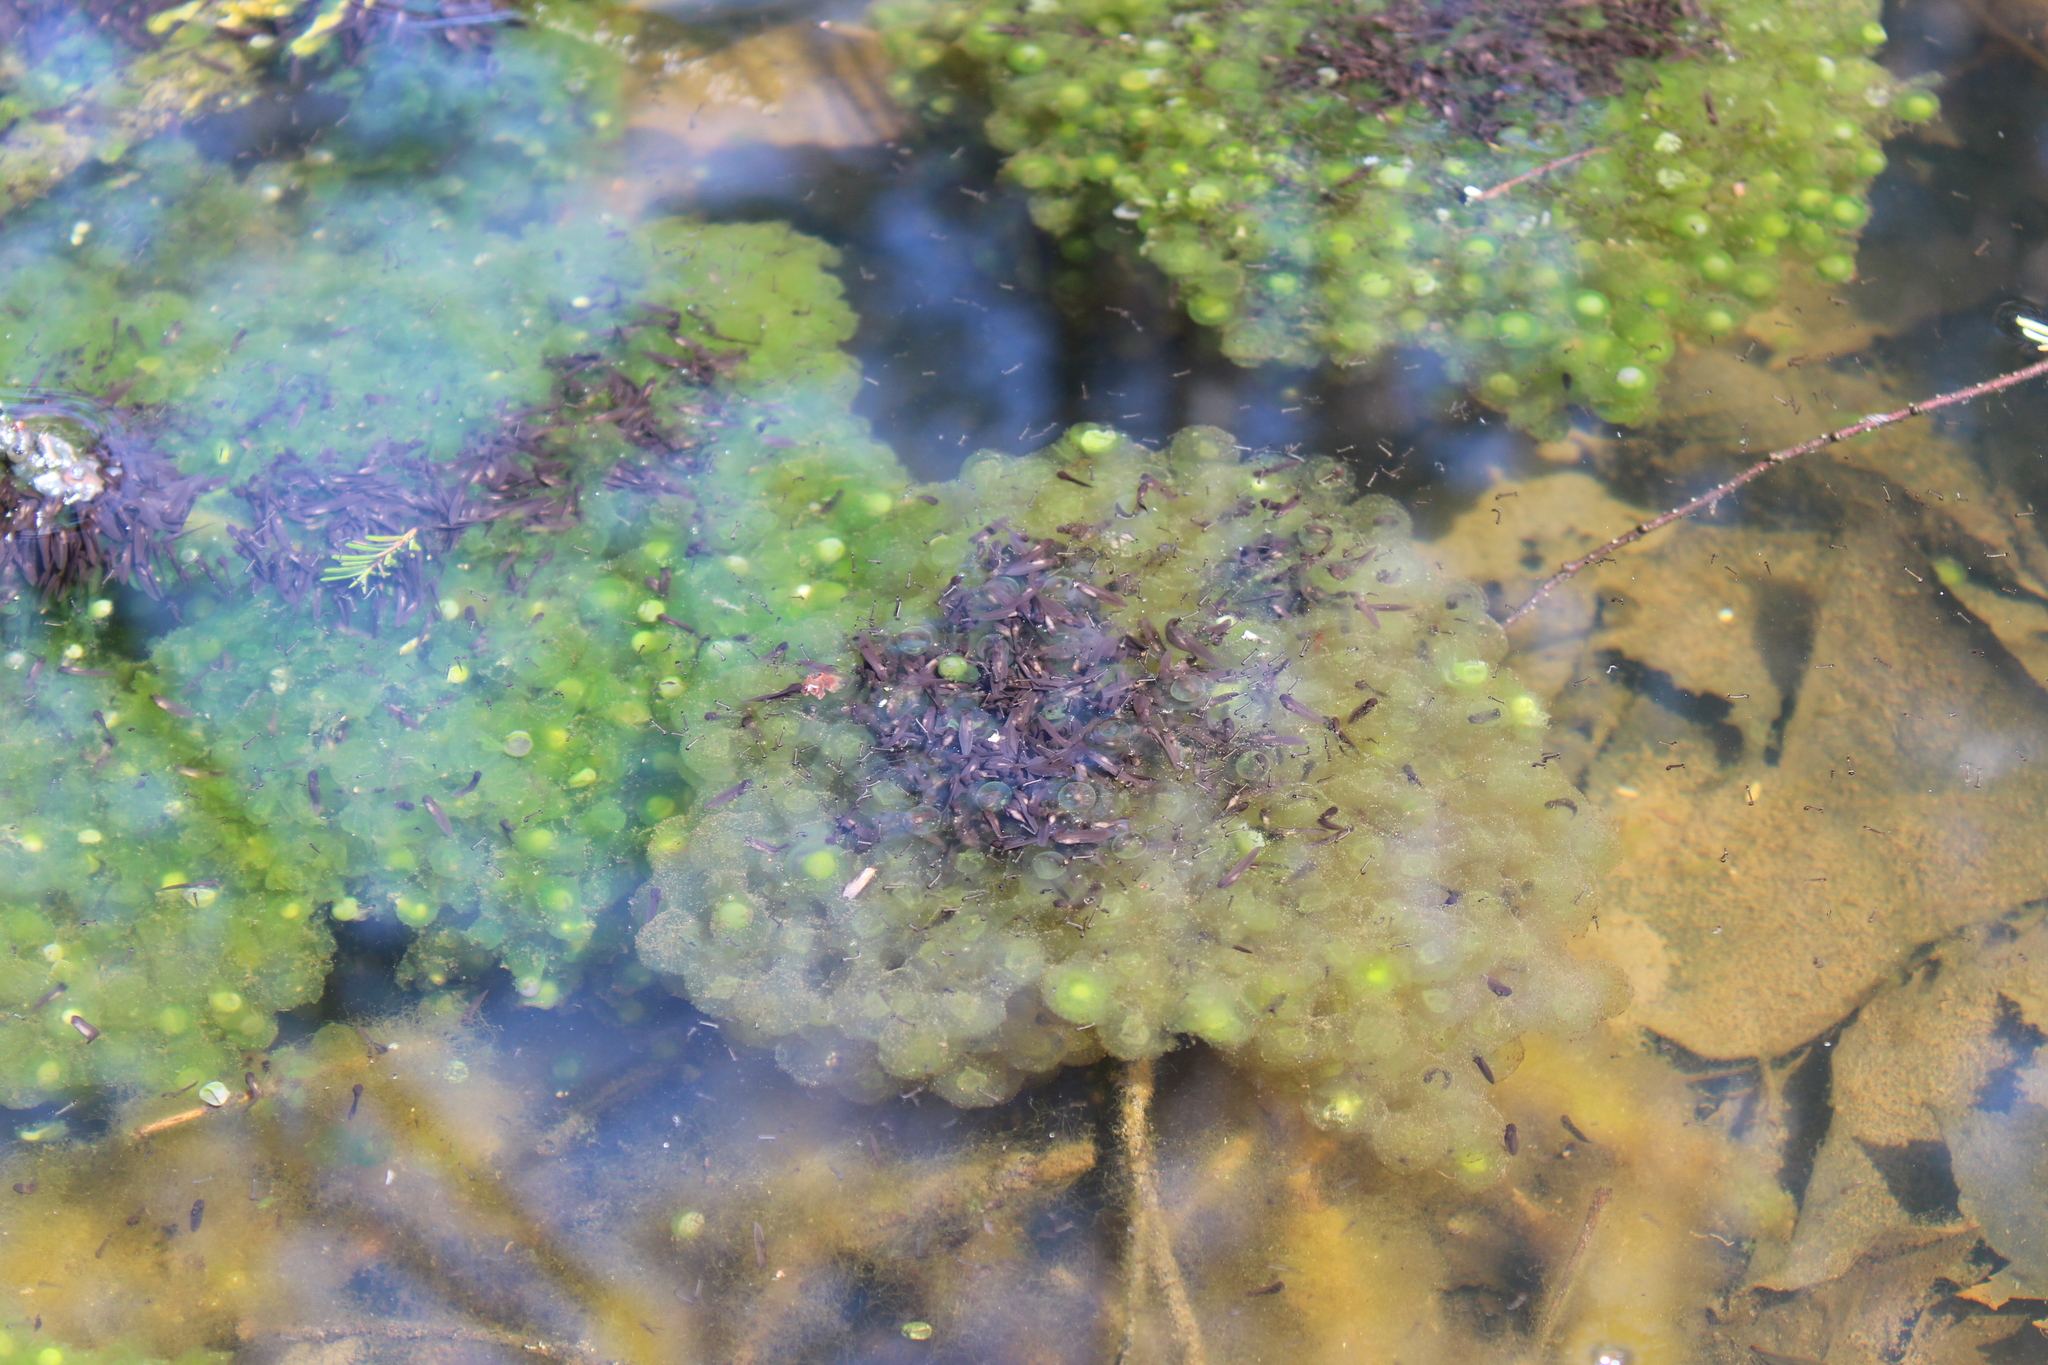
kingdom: Animalia
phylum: Chordata
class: Amphibia
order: Anura
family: Ranidae
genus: Lithobates
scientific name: Lithobates sylvaticus
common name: Wood frog
